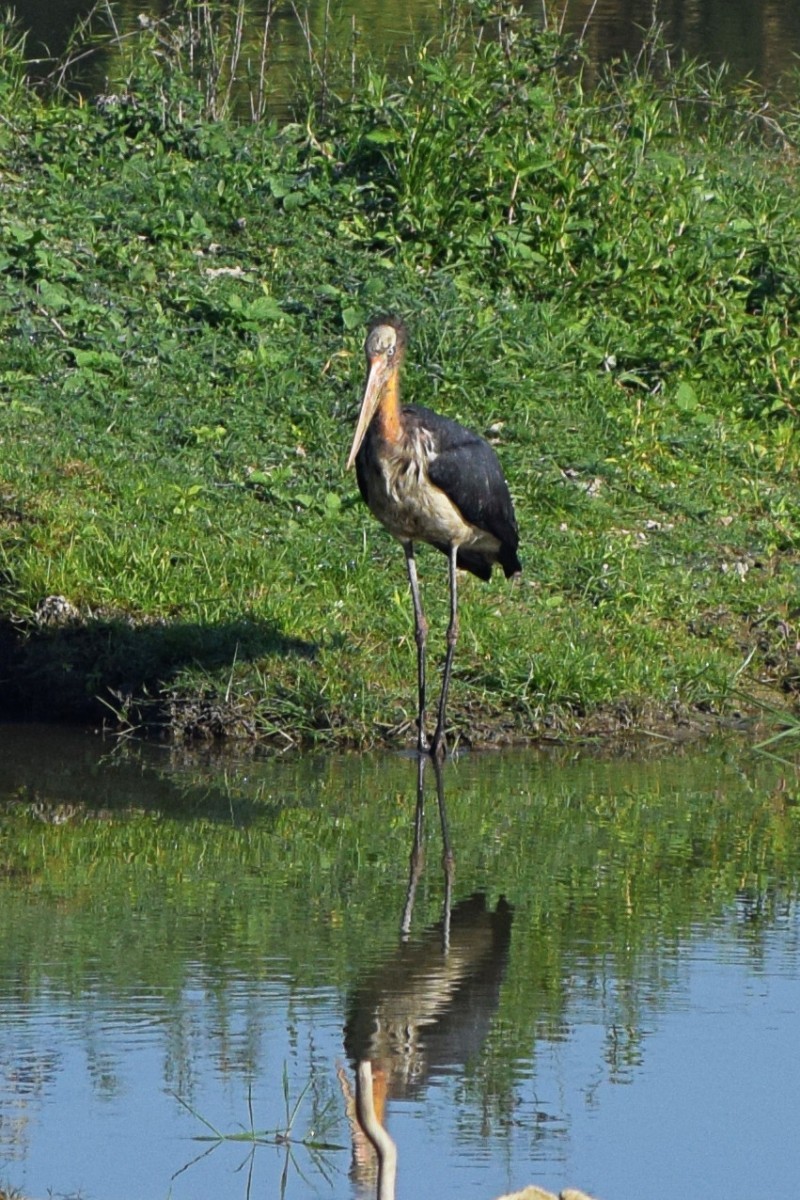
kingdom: Animalia
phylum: Chordata
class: Aves
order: Ciconiiformes
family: Ciconiidae
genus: Leptoptilos
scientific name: Leptoptilos javanicus
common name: Lesser adjutant
